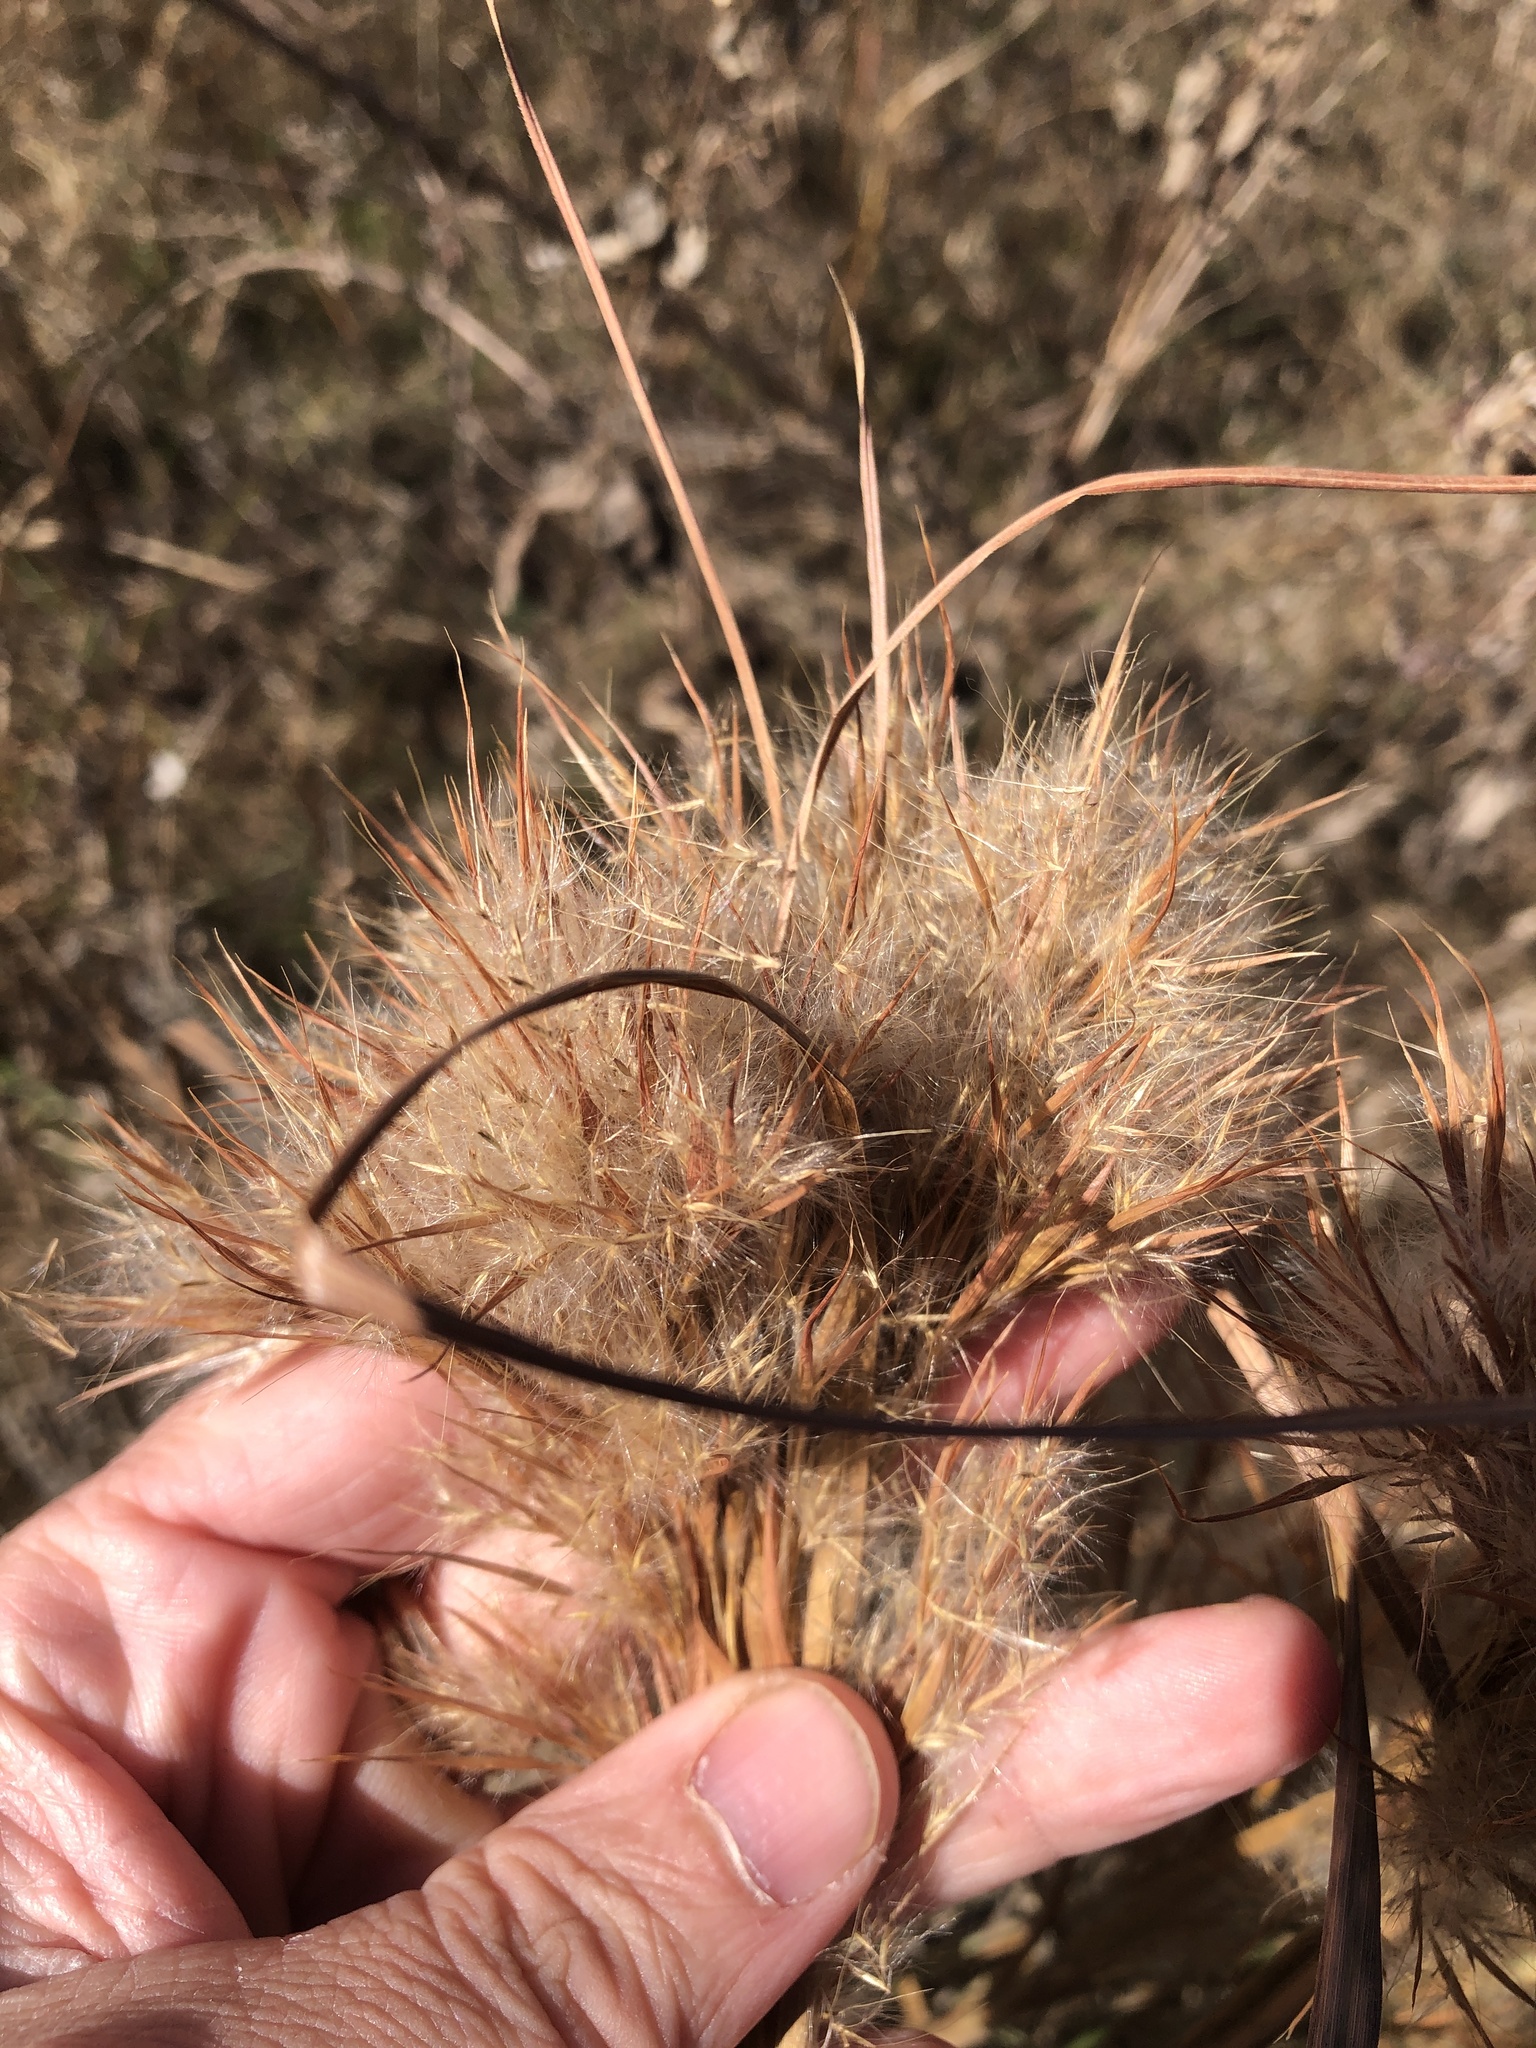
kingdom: Plantae
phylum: Tracheophyta
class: Liliopsida
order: Poales
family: Poaceae
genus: Andropogon
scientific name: Andropogon tenuispatheus
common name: Bushy bluestem
